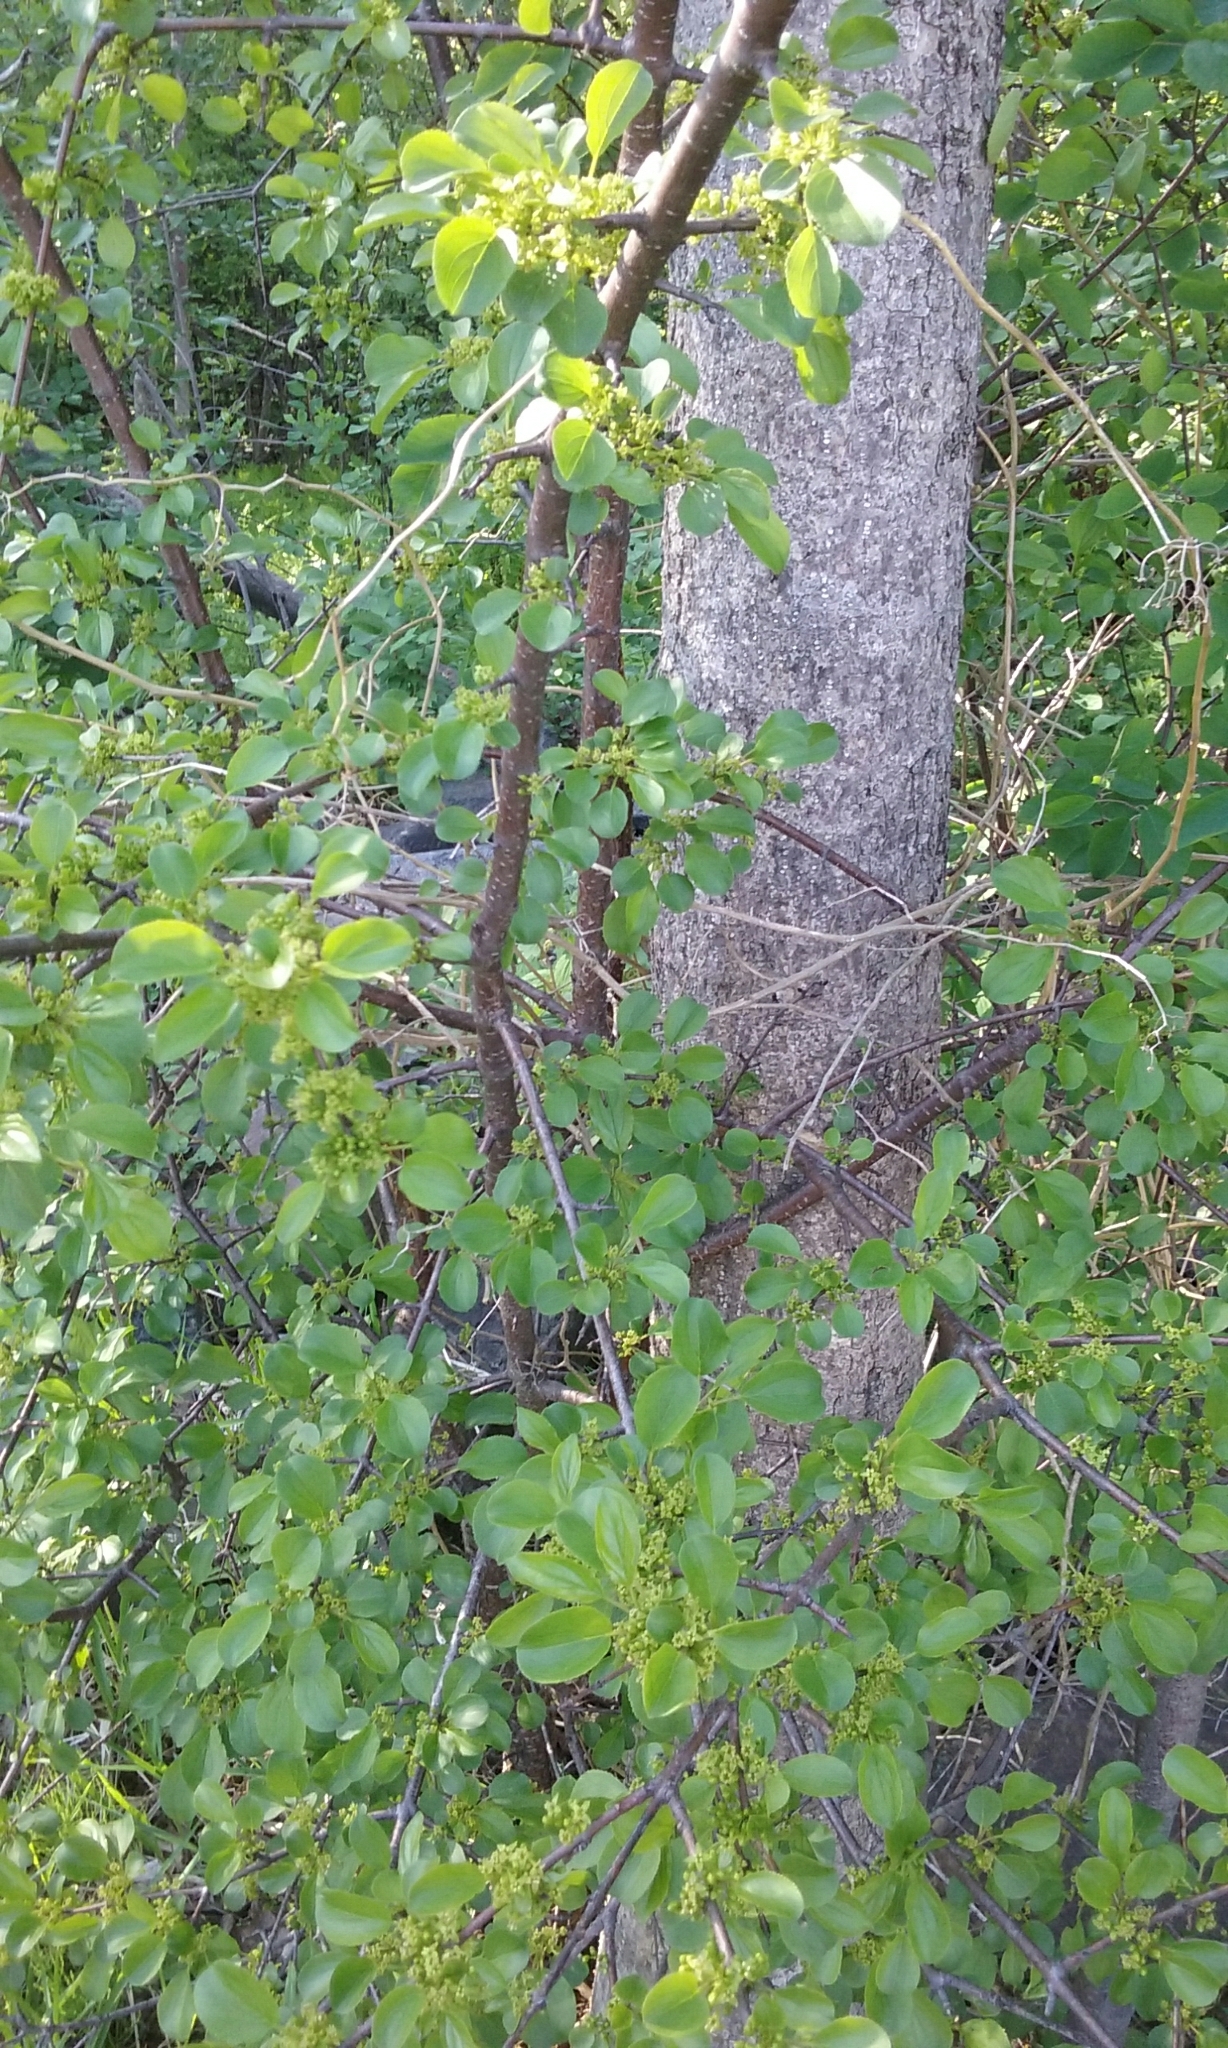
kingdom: Plantae
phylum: Tracheophyta
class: Magnoliopsida
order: Rosales
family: Rhamnaceae
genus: Rhamnus
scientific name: Rhamnus cathartica
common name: Common buckthorn
